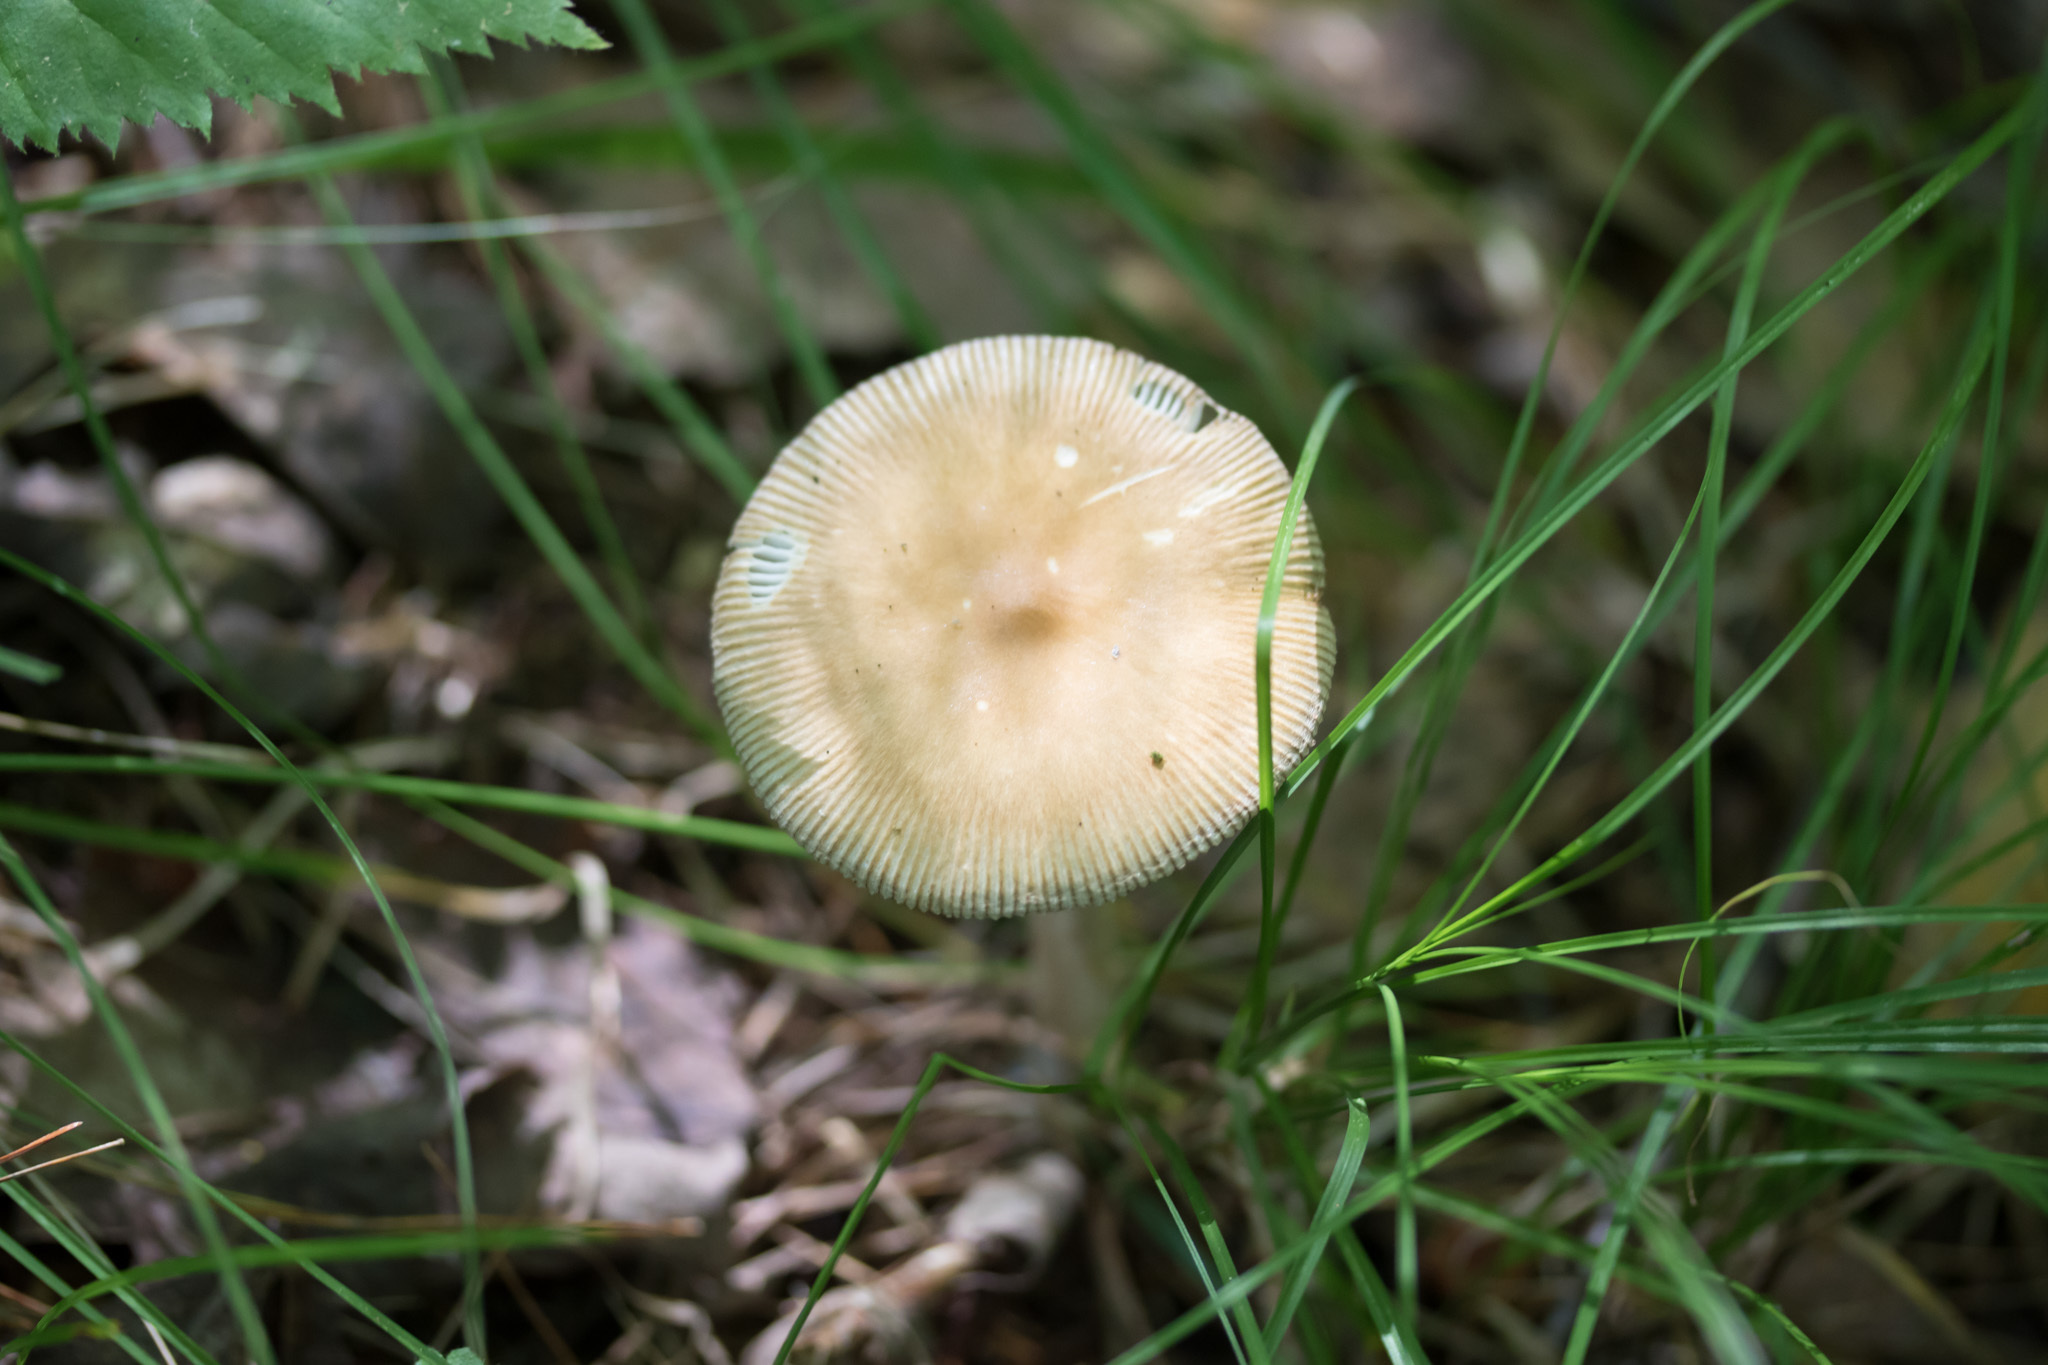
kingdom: Fungi
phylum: Basidiomycota
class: Agaricomycetes
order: Agaricales
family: Amanitaceae
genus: Amanita
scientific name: Amanita fulva
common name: Tawny grisette
